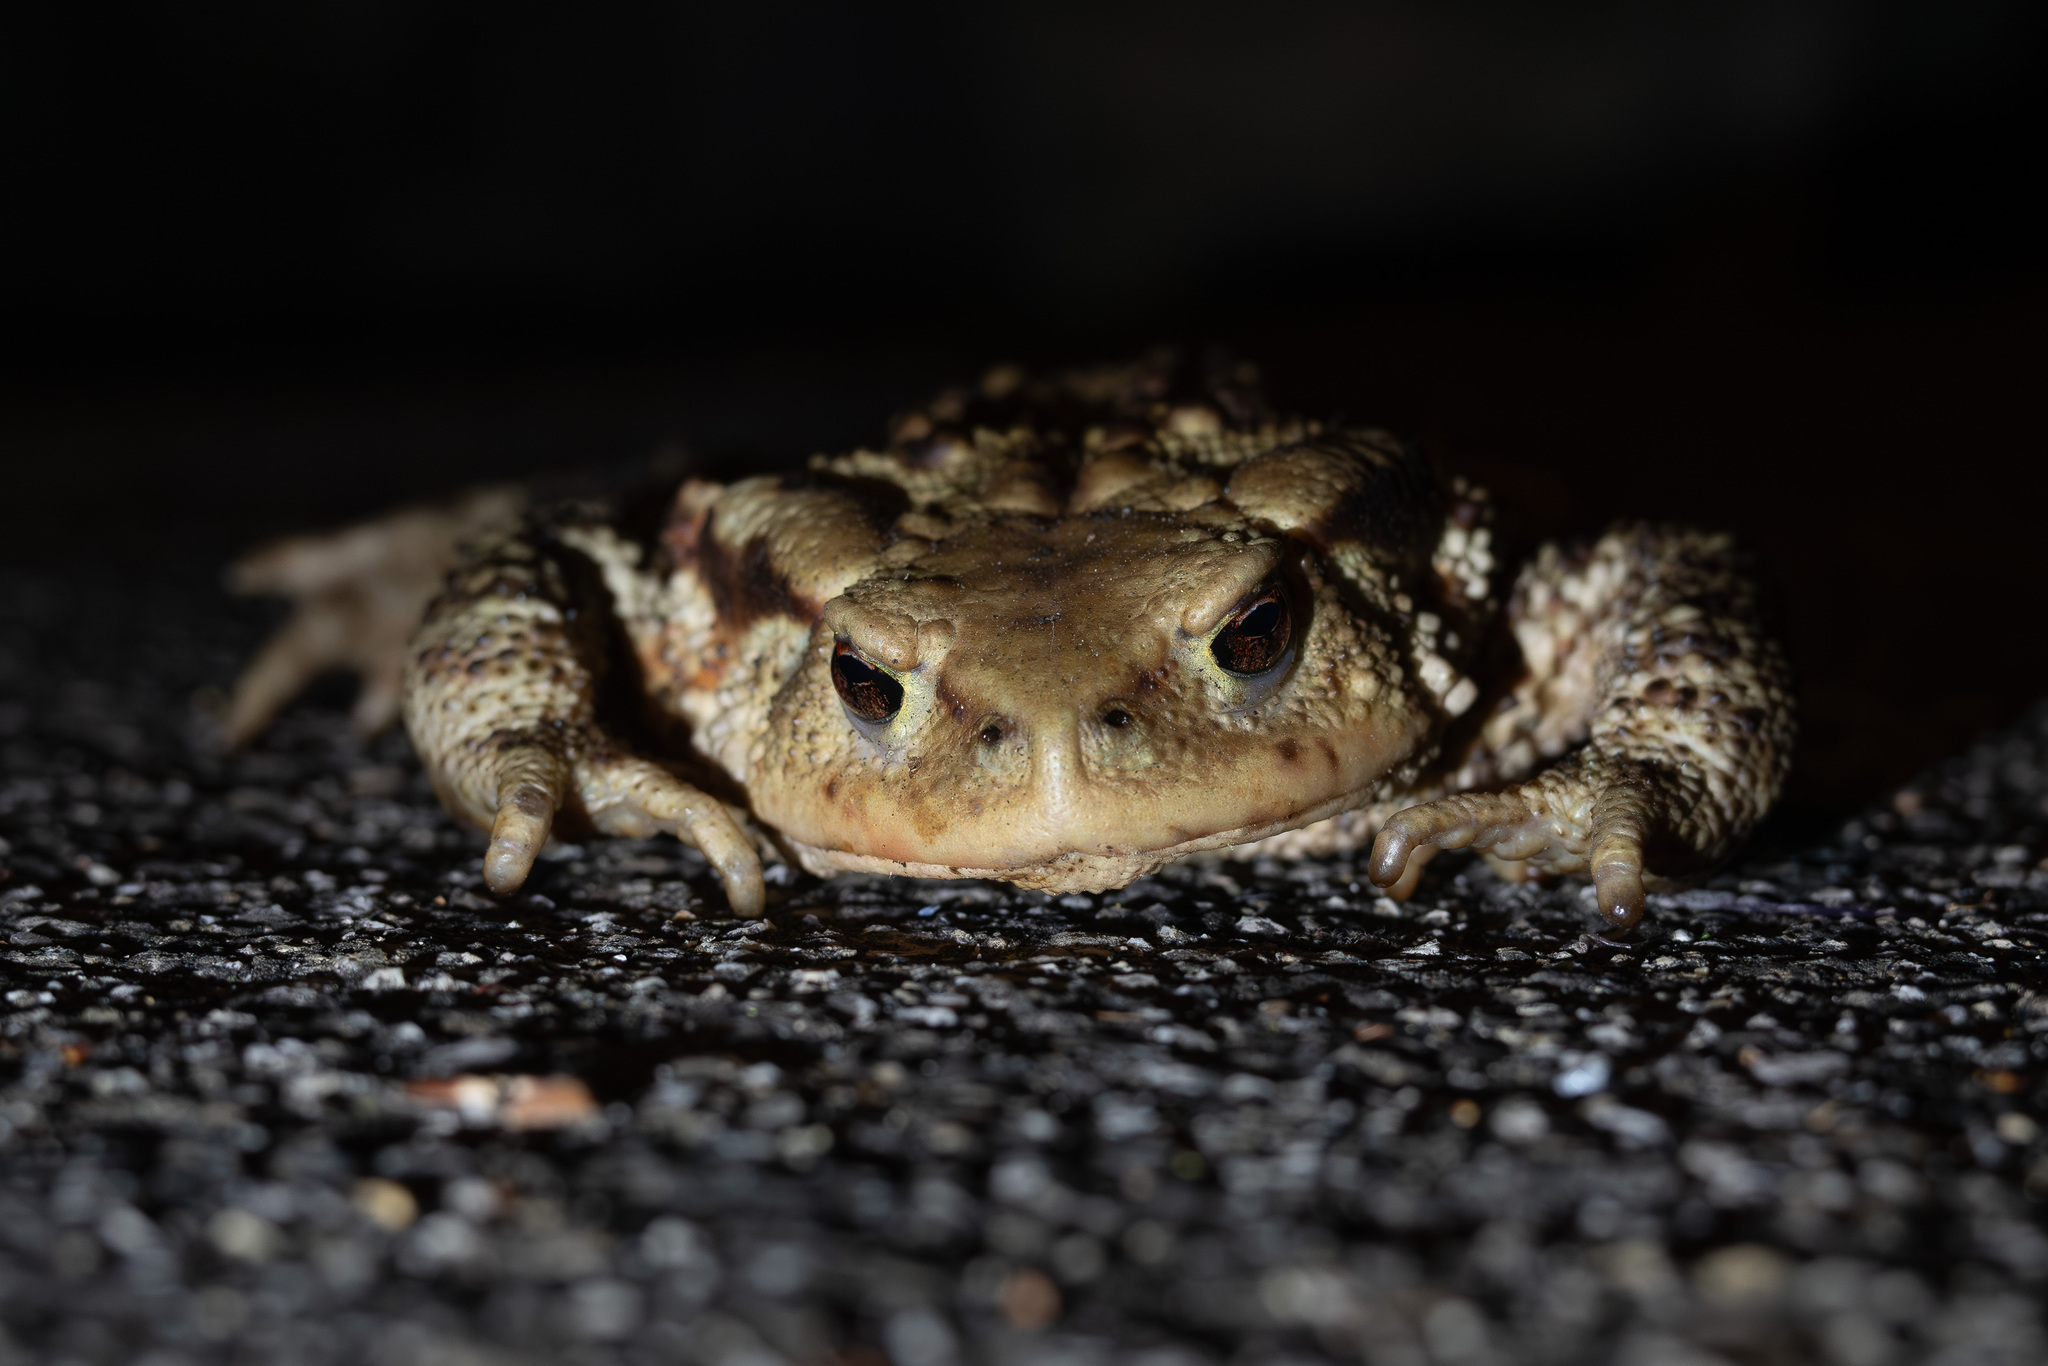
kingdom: Animalia
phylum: Chordata
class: Amphibia
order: Anura
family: Bufonidae
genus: Bufo
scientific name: Bufo bufo
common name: Common toad
